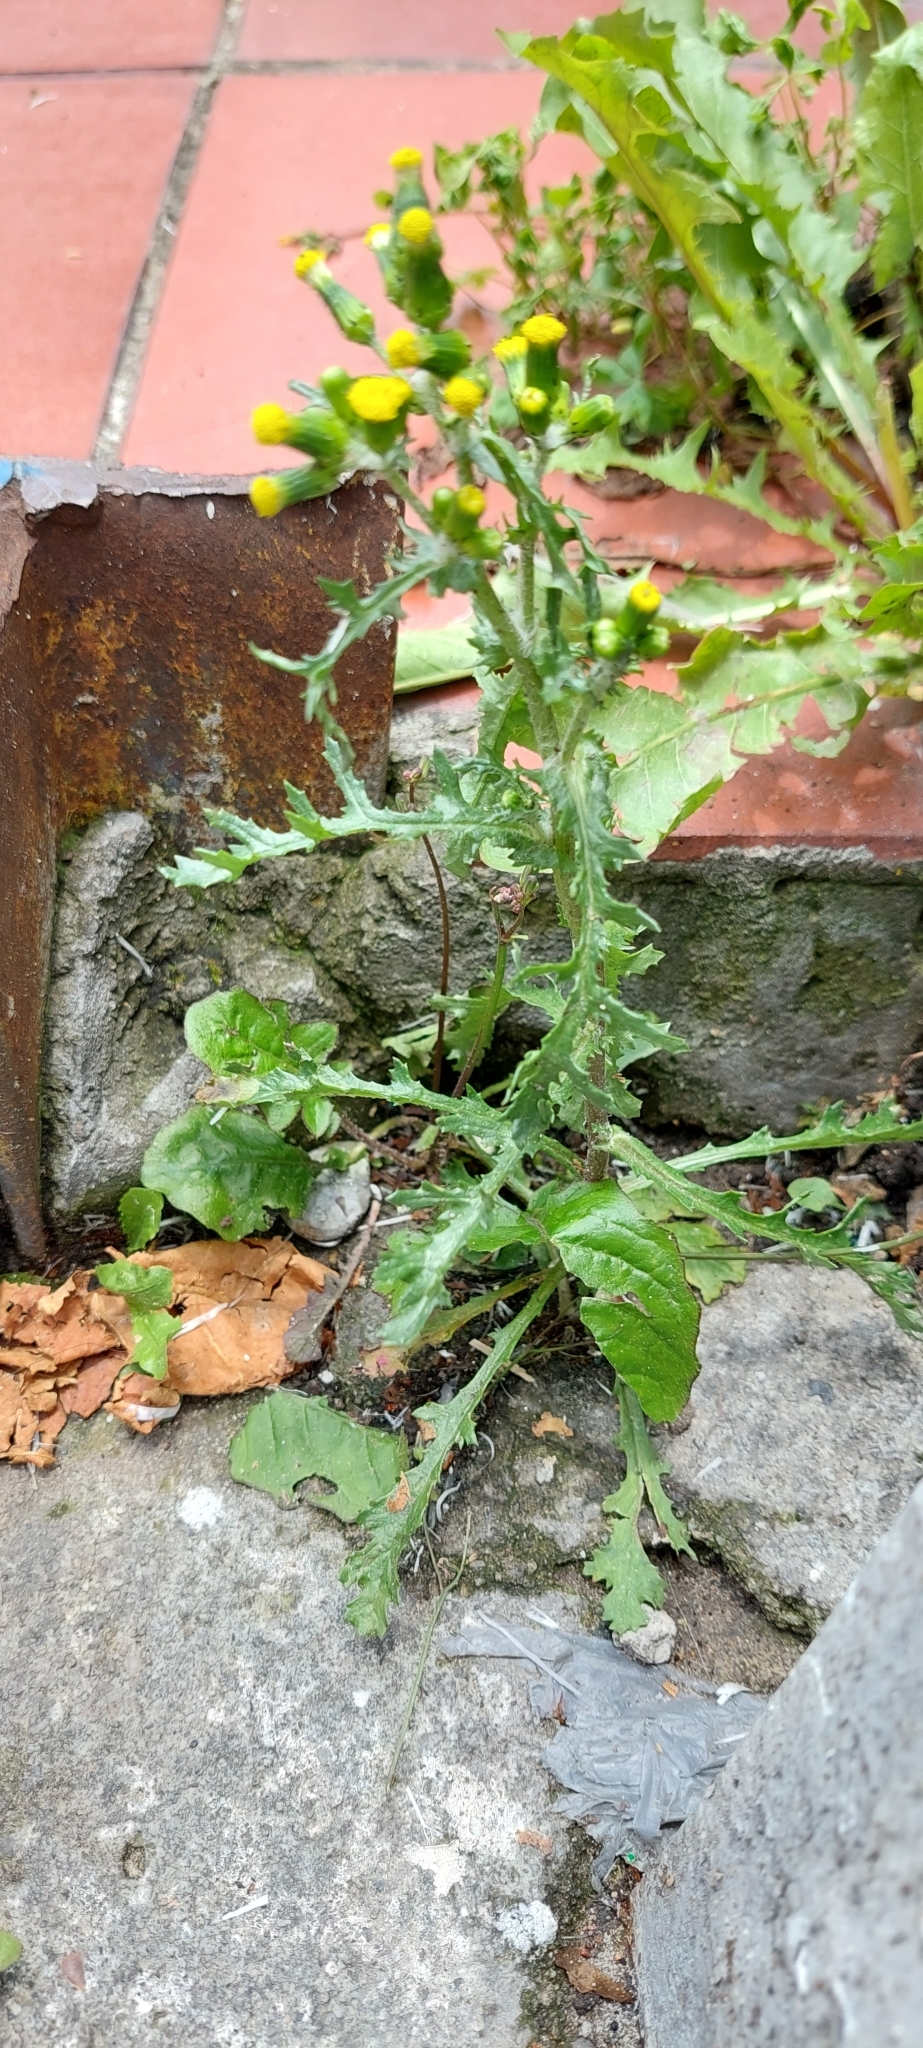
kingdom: Plantae
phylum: Tracheophyta
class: Magnoliopsida
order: Asterales
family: Asteraceae
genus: Senecio
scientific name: Senecio vulgaris
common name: Old-man-in-the-spring
